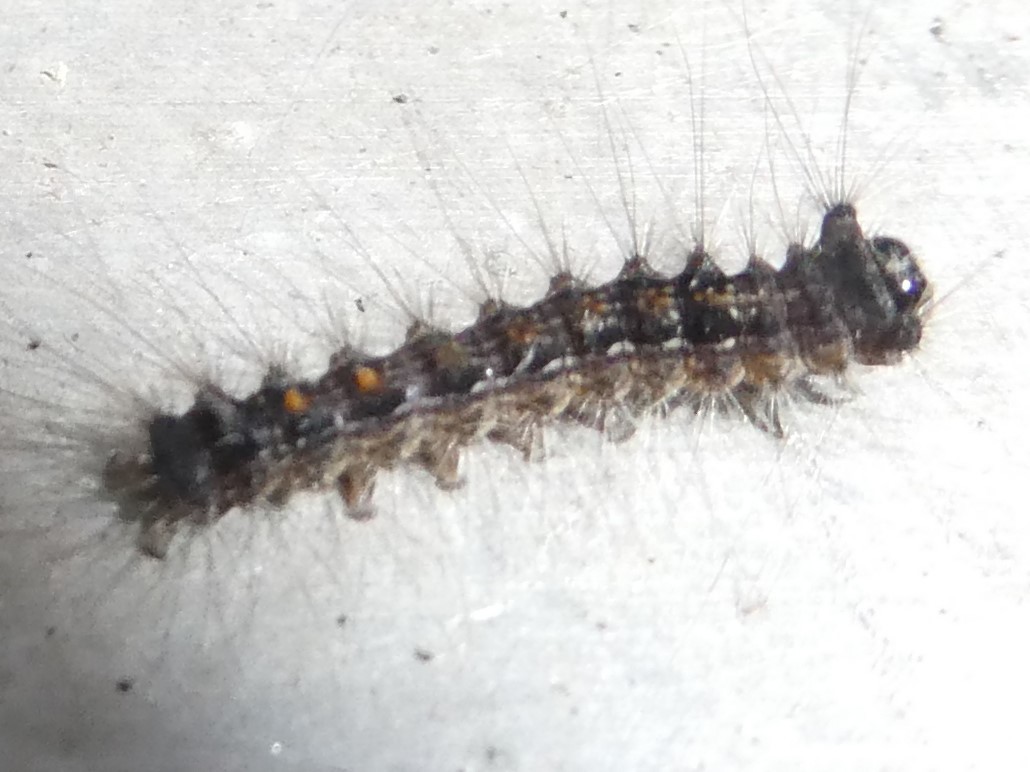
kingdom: Animalia
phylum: Arthropoda
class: Insecta
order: Lepidoptera
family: Erebidae
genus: Lymantria
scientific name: Lymantria dispar
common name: Gypsy moth
